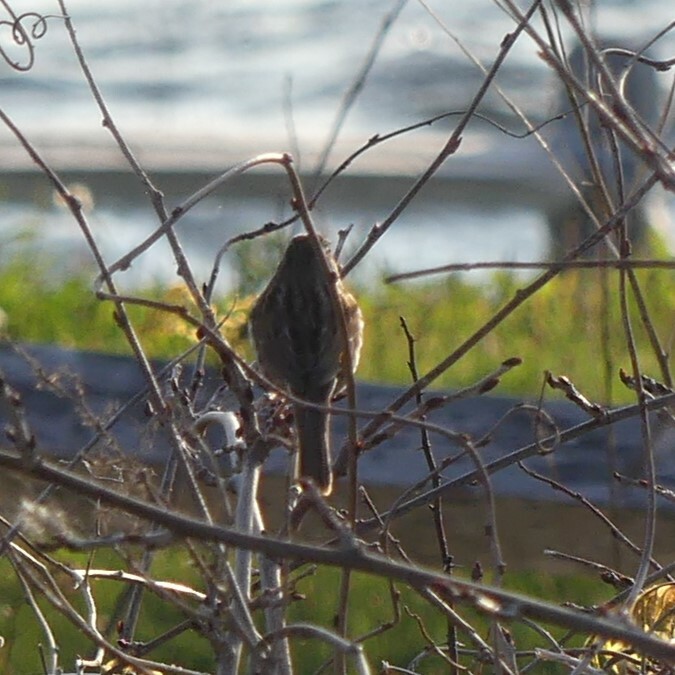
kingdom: Animalia
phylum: Chordata
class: Aves
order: Passeriformes
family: Passerellidae
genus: Melospiza
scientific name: Melospiza melodia
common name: Song sparrow
